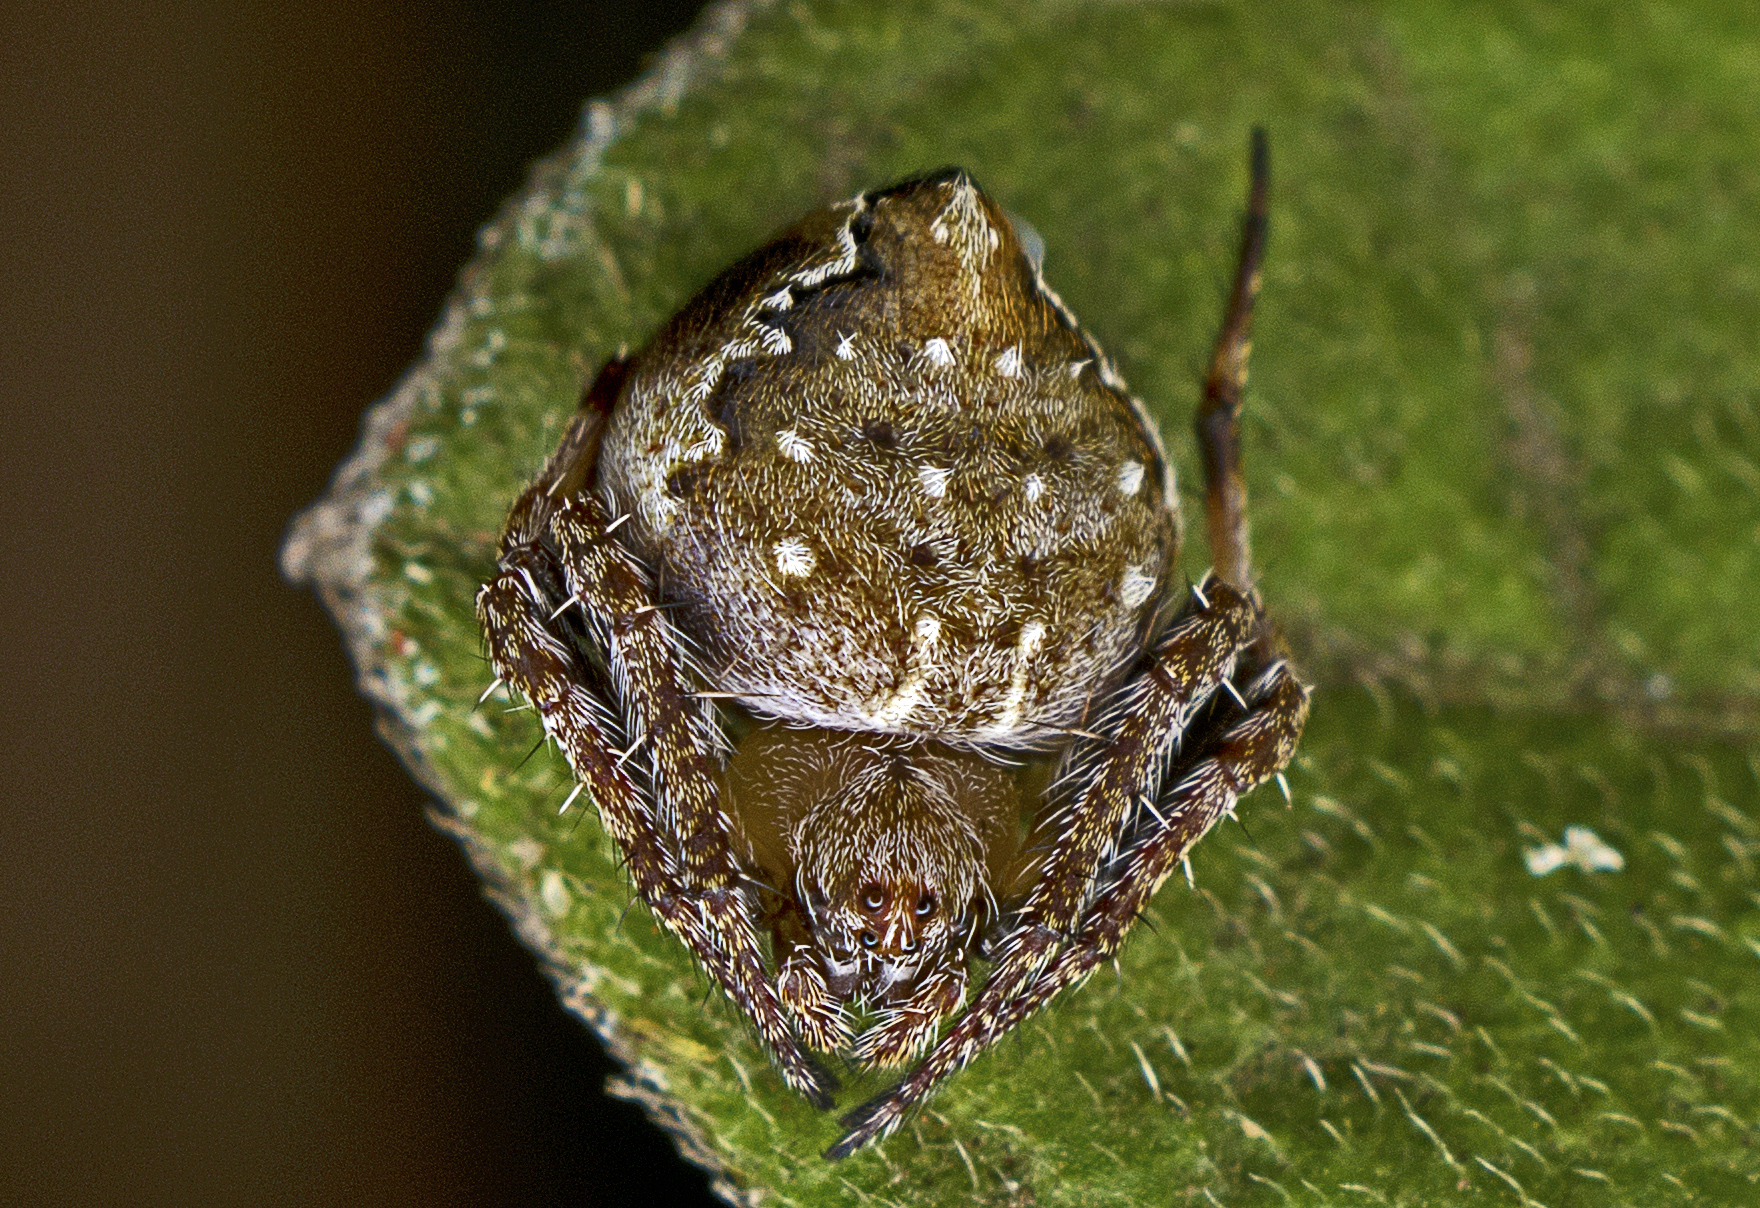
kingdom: Animalia
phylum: Arthropoda
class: Arachnida
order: Araneae
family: Araneidae
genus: Araneus
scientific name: Araneus acuminatus
